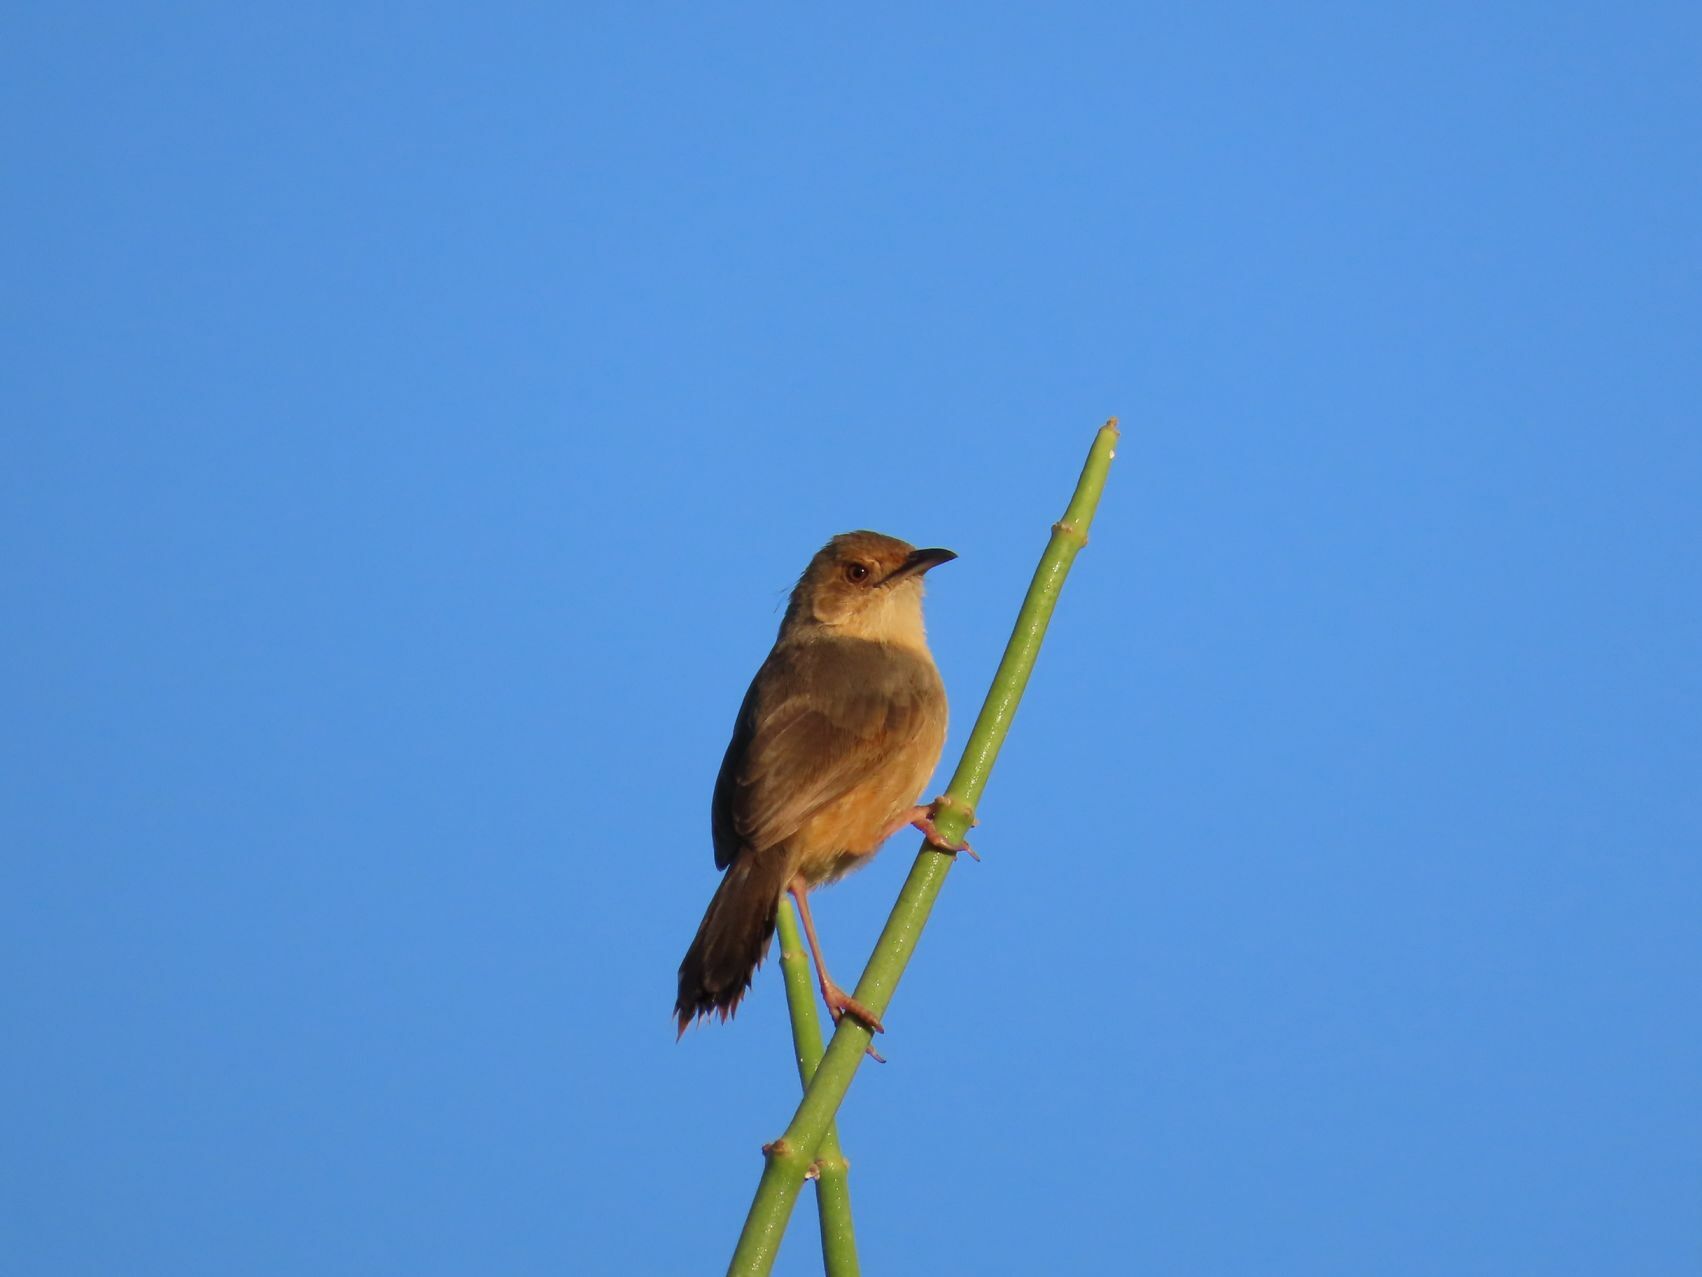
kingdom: Animalia
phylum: Chordata
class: Aves
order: Passeriformes
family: Cisticolidae
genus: Cisticola
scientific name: Cisticola erythrops
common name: Red-faced cisticola
